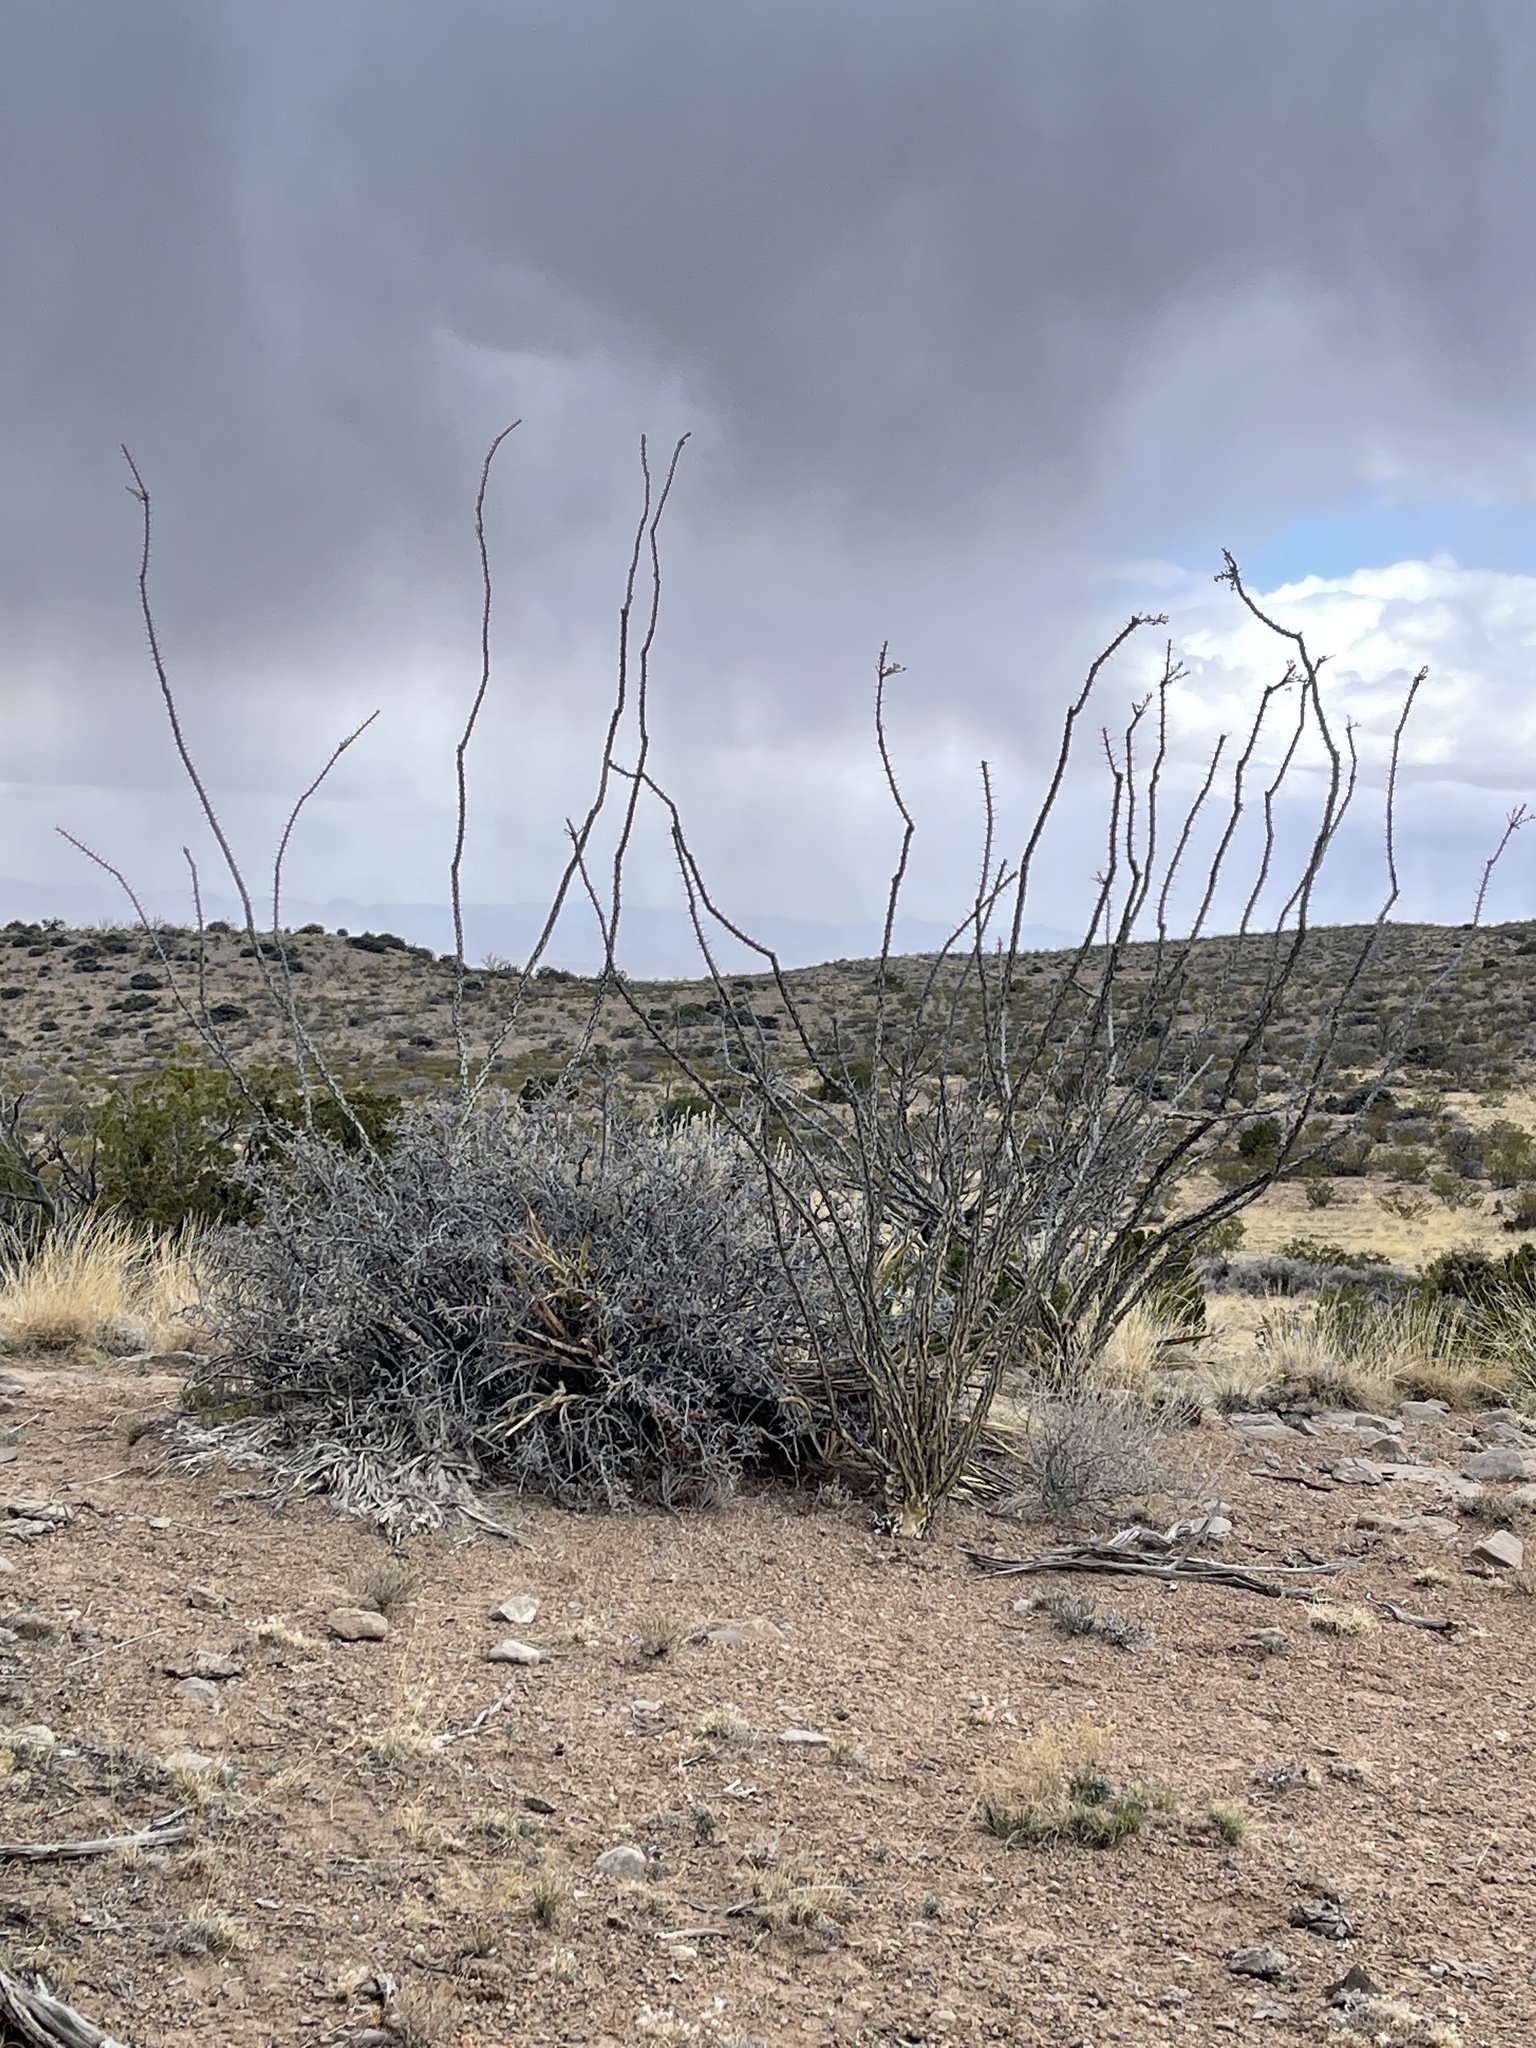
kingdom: Plantae
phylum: Tracheophyta
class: Magnoliopsida
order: Ericales
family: Fouquieriaceae
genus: Fouquieria
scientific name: Fouquieria splendens
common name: Vine-cactus
